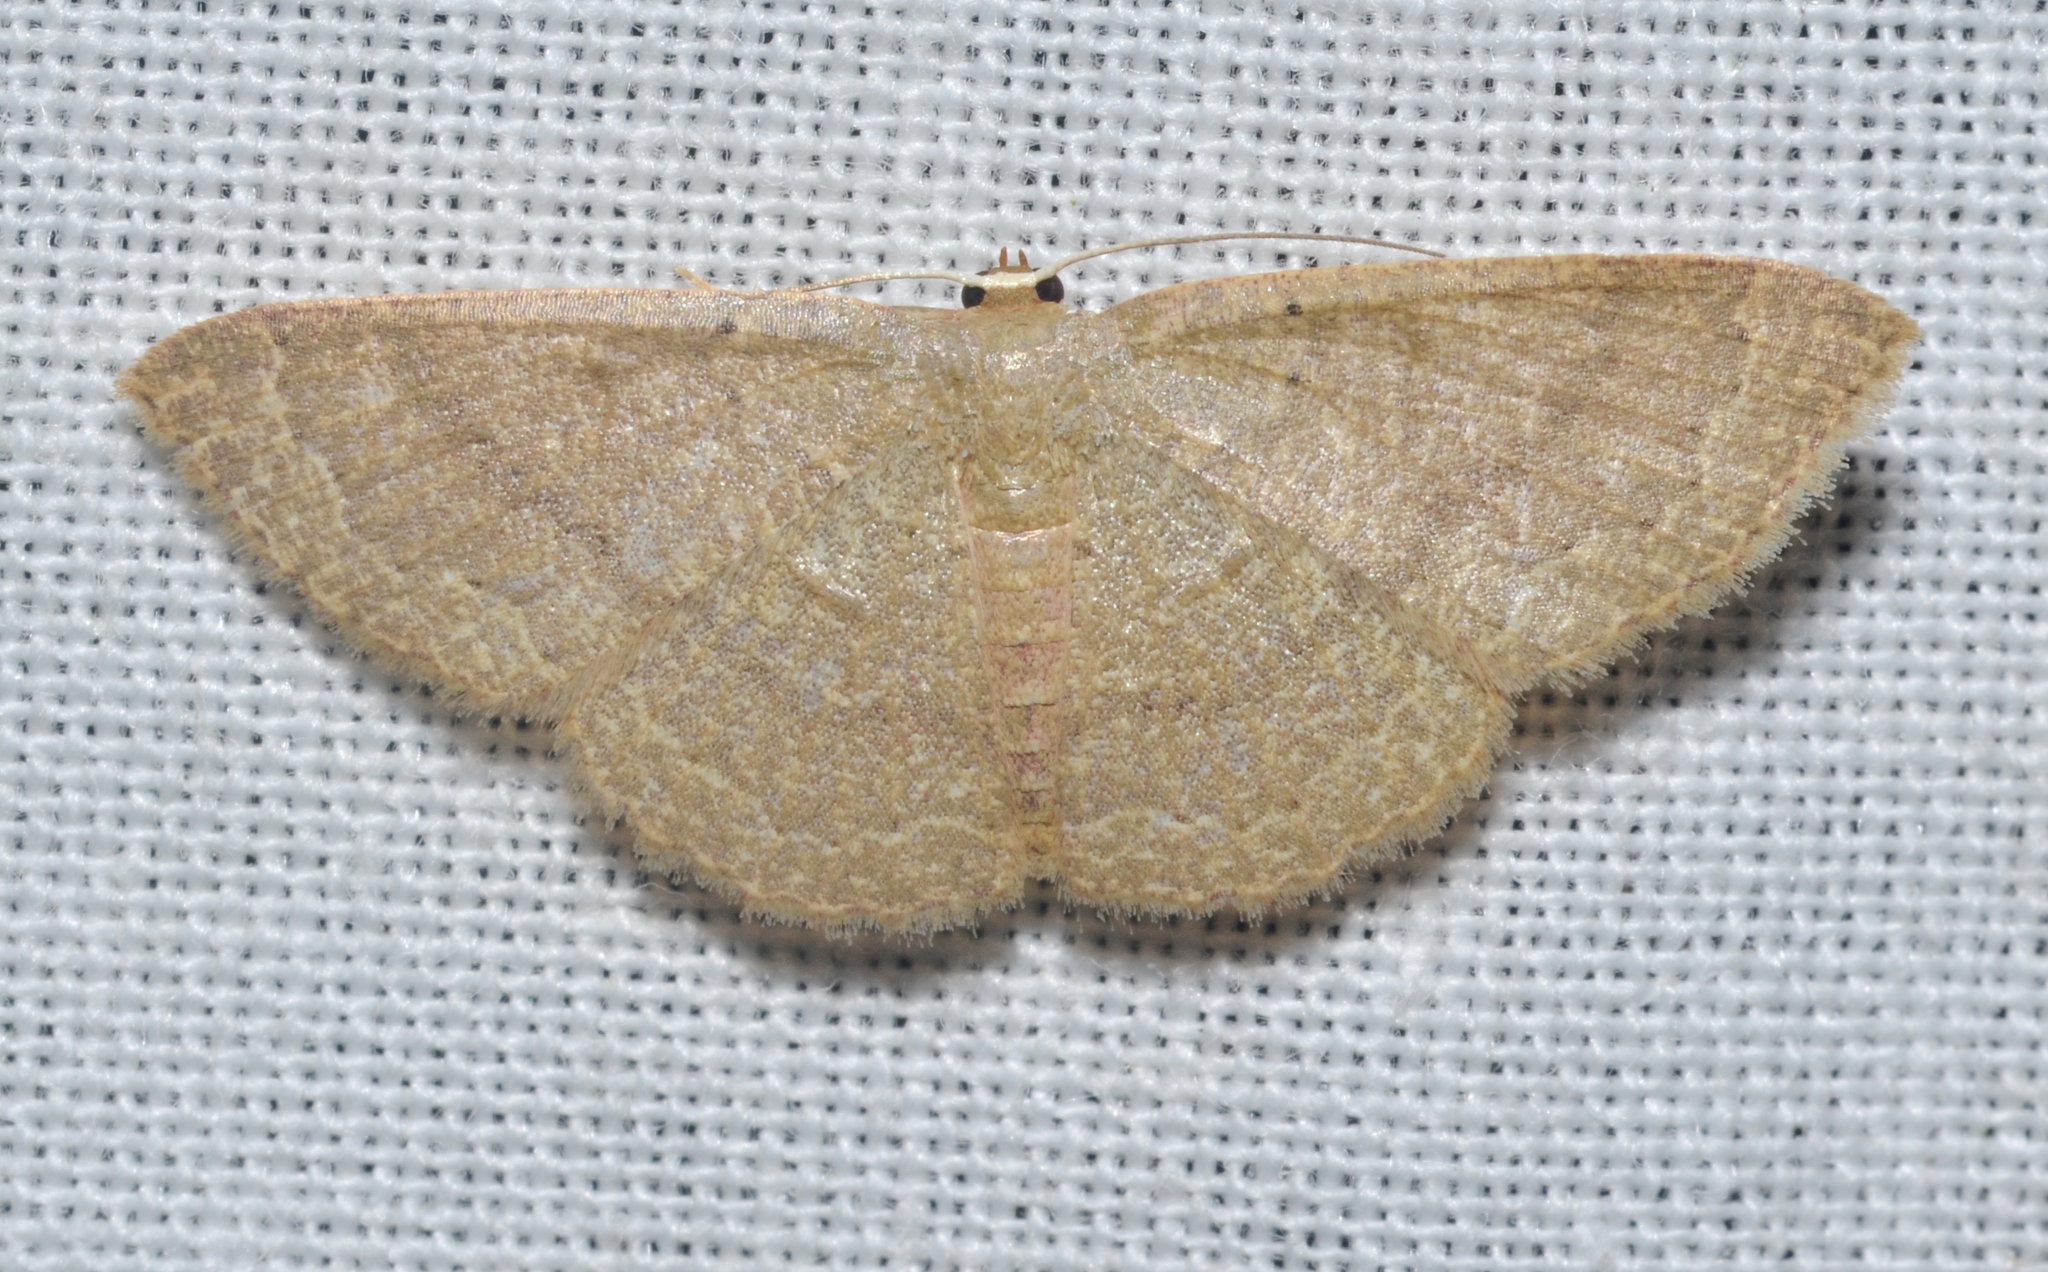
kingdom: Animalia
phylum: Arthropoda
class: Insecta
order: Lepidoptera
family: Geometridae
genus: Pleuroprucha
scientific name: Pleuroprucha insulsaria
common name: Common tan wave
